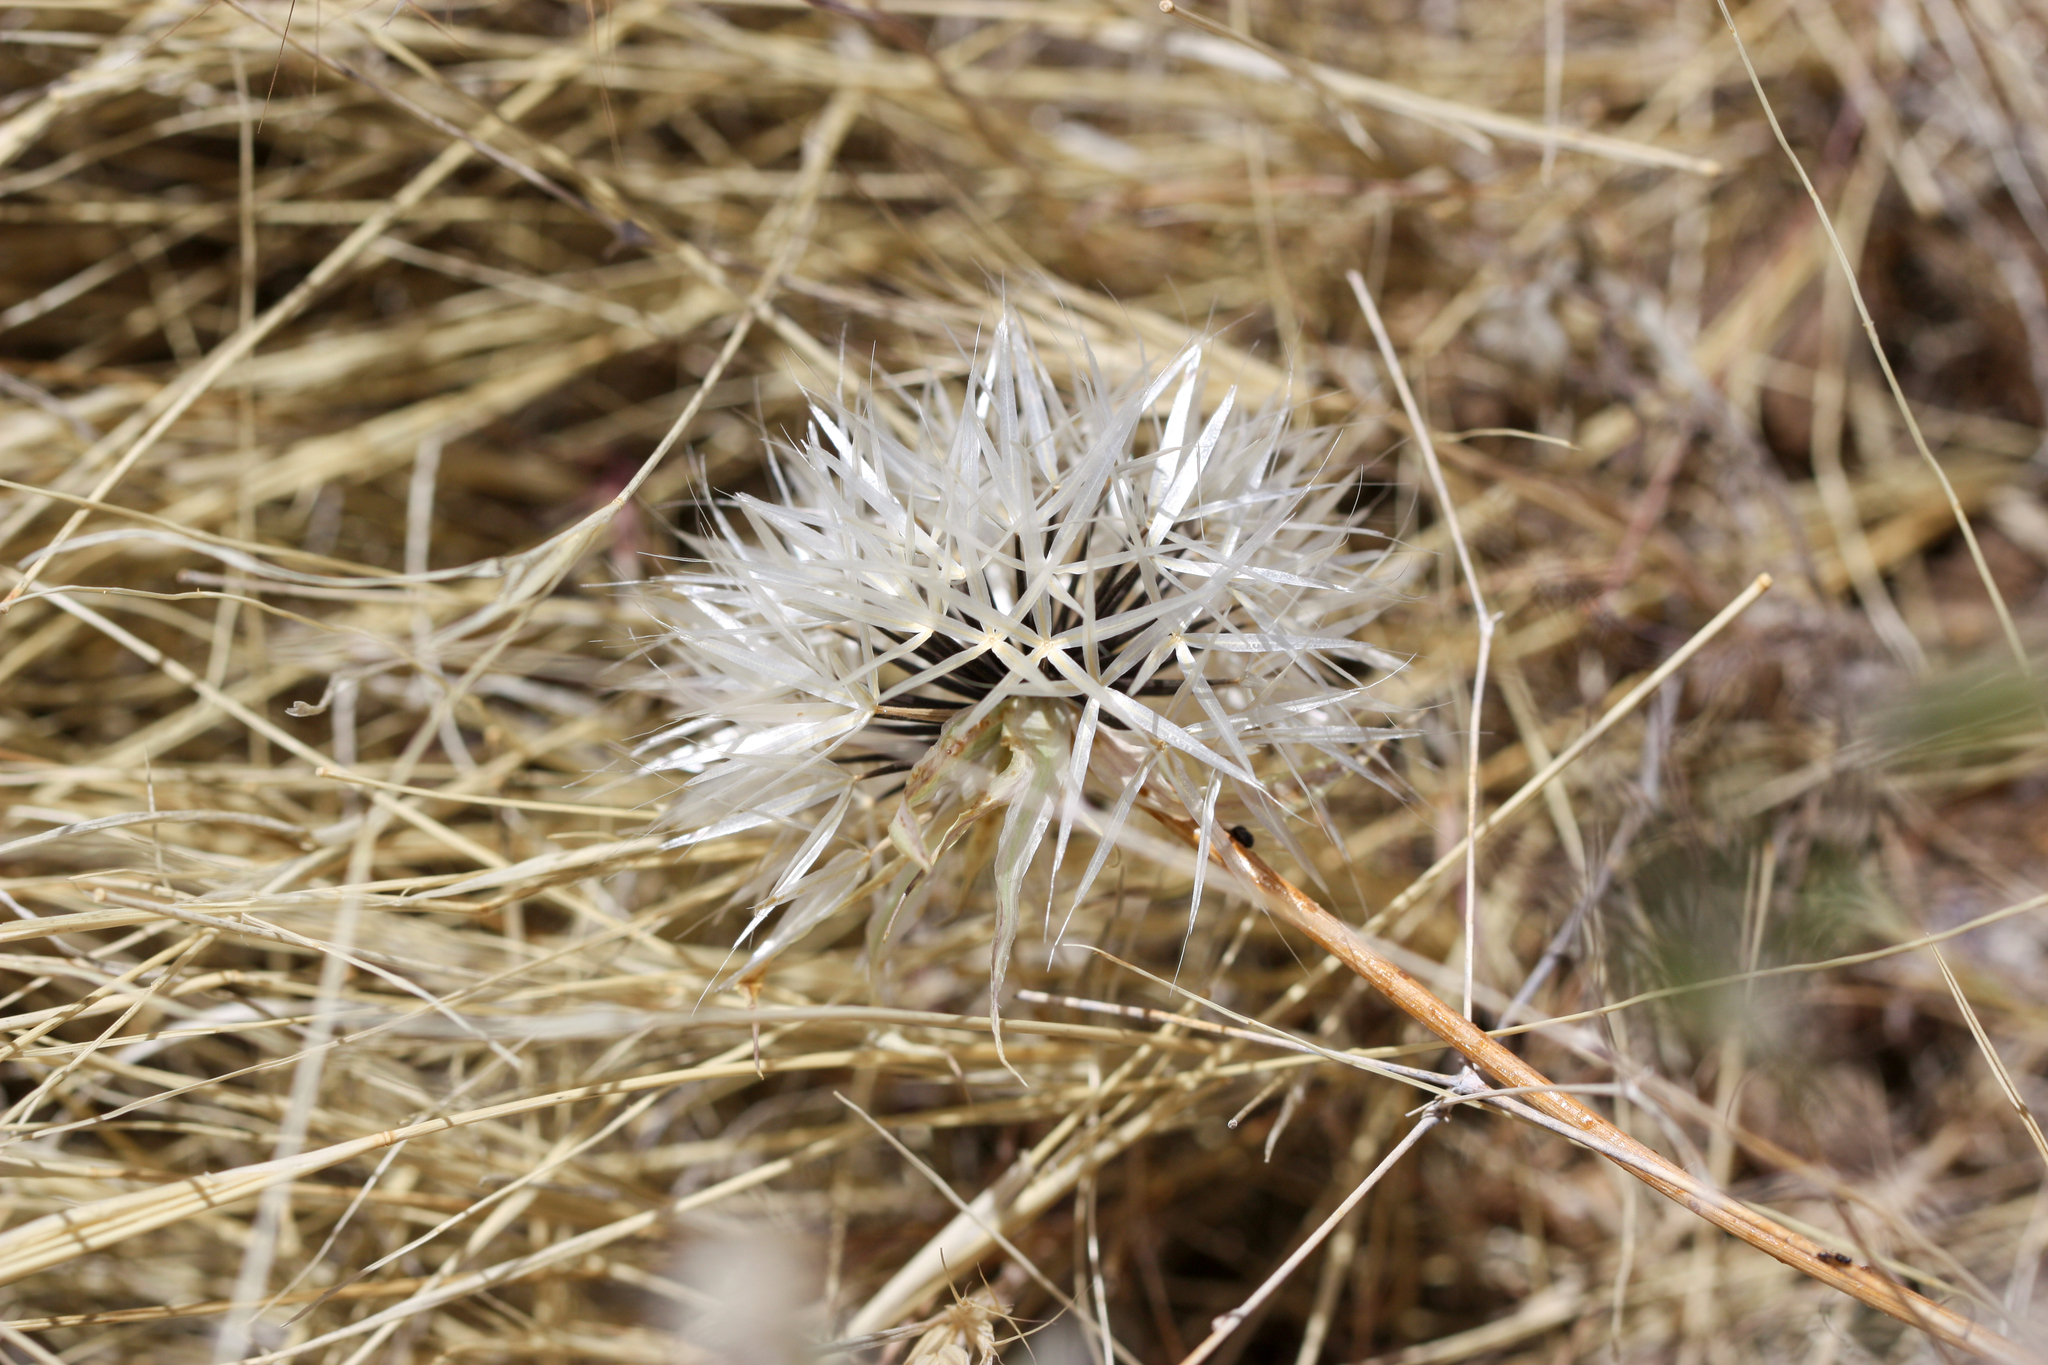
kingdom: Plantae
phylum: Tracheophyta
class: Magnoliopsida
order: Asterales
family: Asteraceae
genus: Microseris
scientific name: Microseris lindleyi
